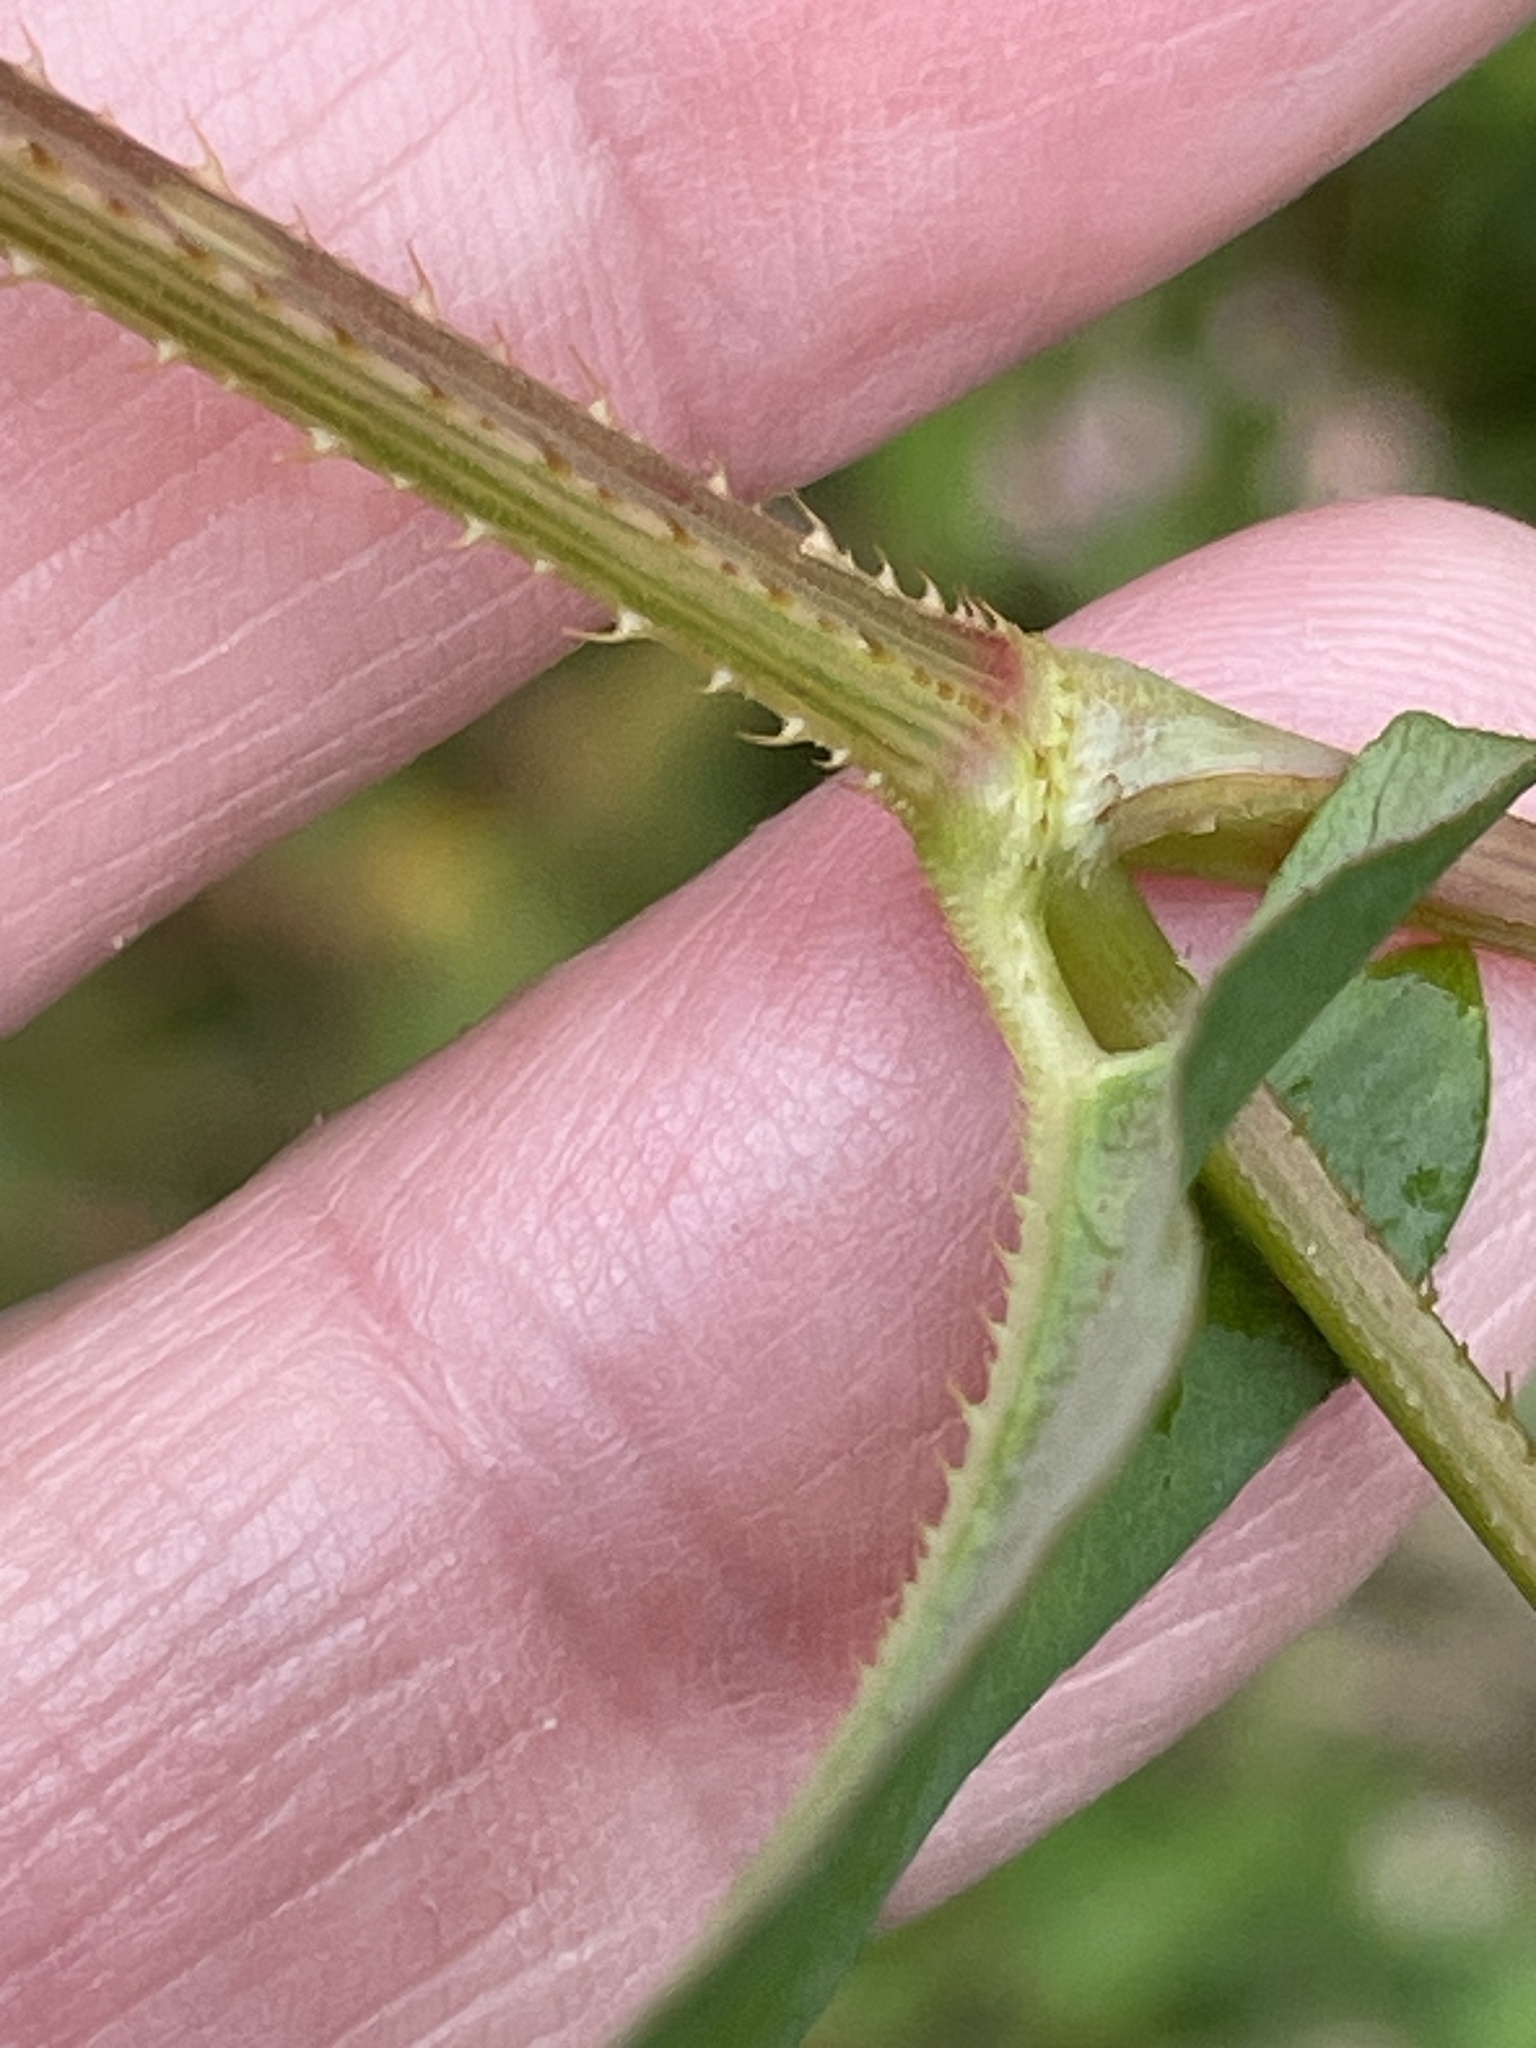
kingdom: Plantae
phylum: Tracheophyta
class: Magnoliopsida
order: Caryophyllales
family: Polygonaceae
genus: Persicaria
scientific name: Persicaria sagittata
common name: American tearthumb
